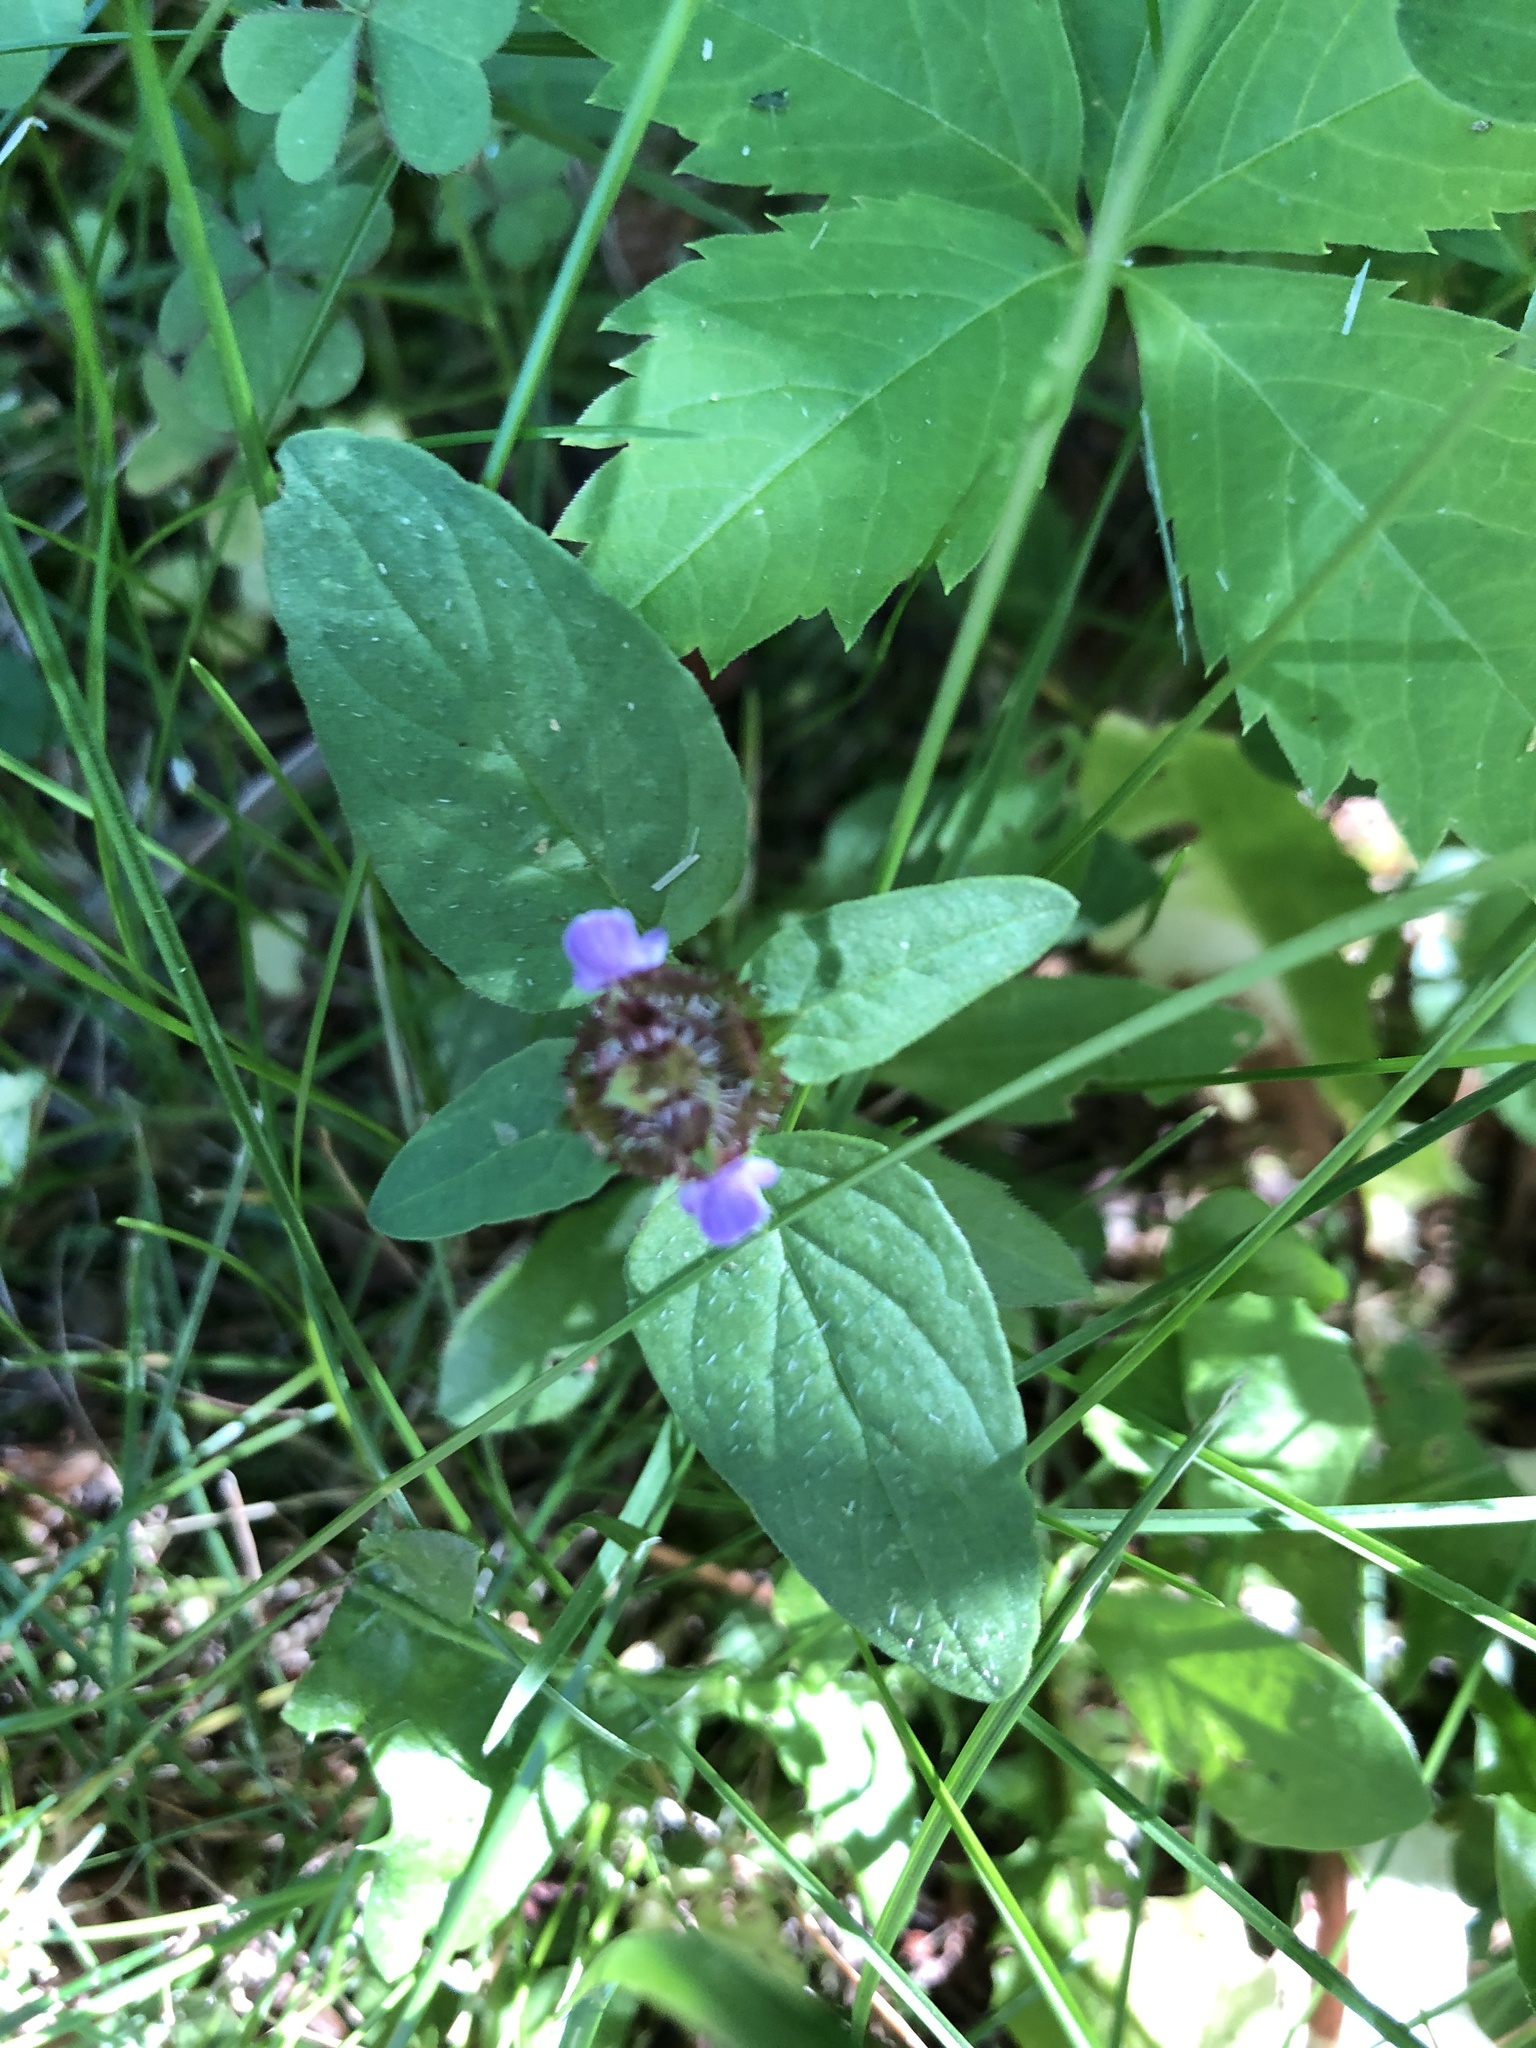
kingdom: Plantae
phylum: Tracheophyta
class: Magnoliopsida
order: Lamiales
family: Lamiaceae
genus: Prunella
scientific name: Prunella vulgaris
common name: Heal-all
